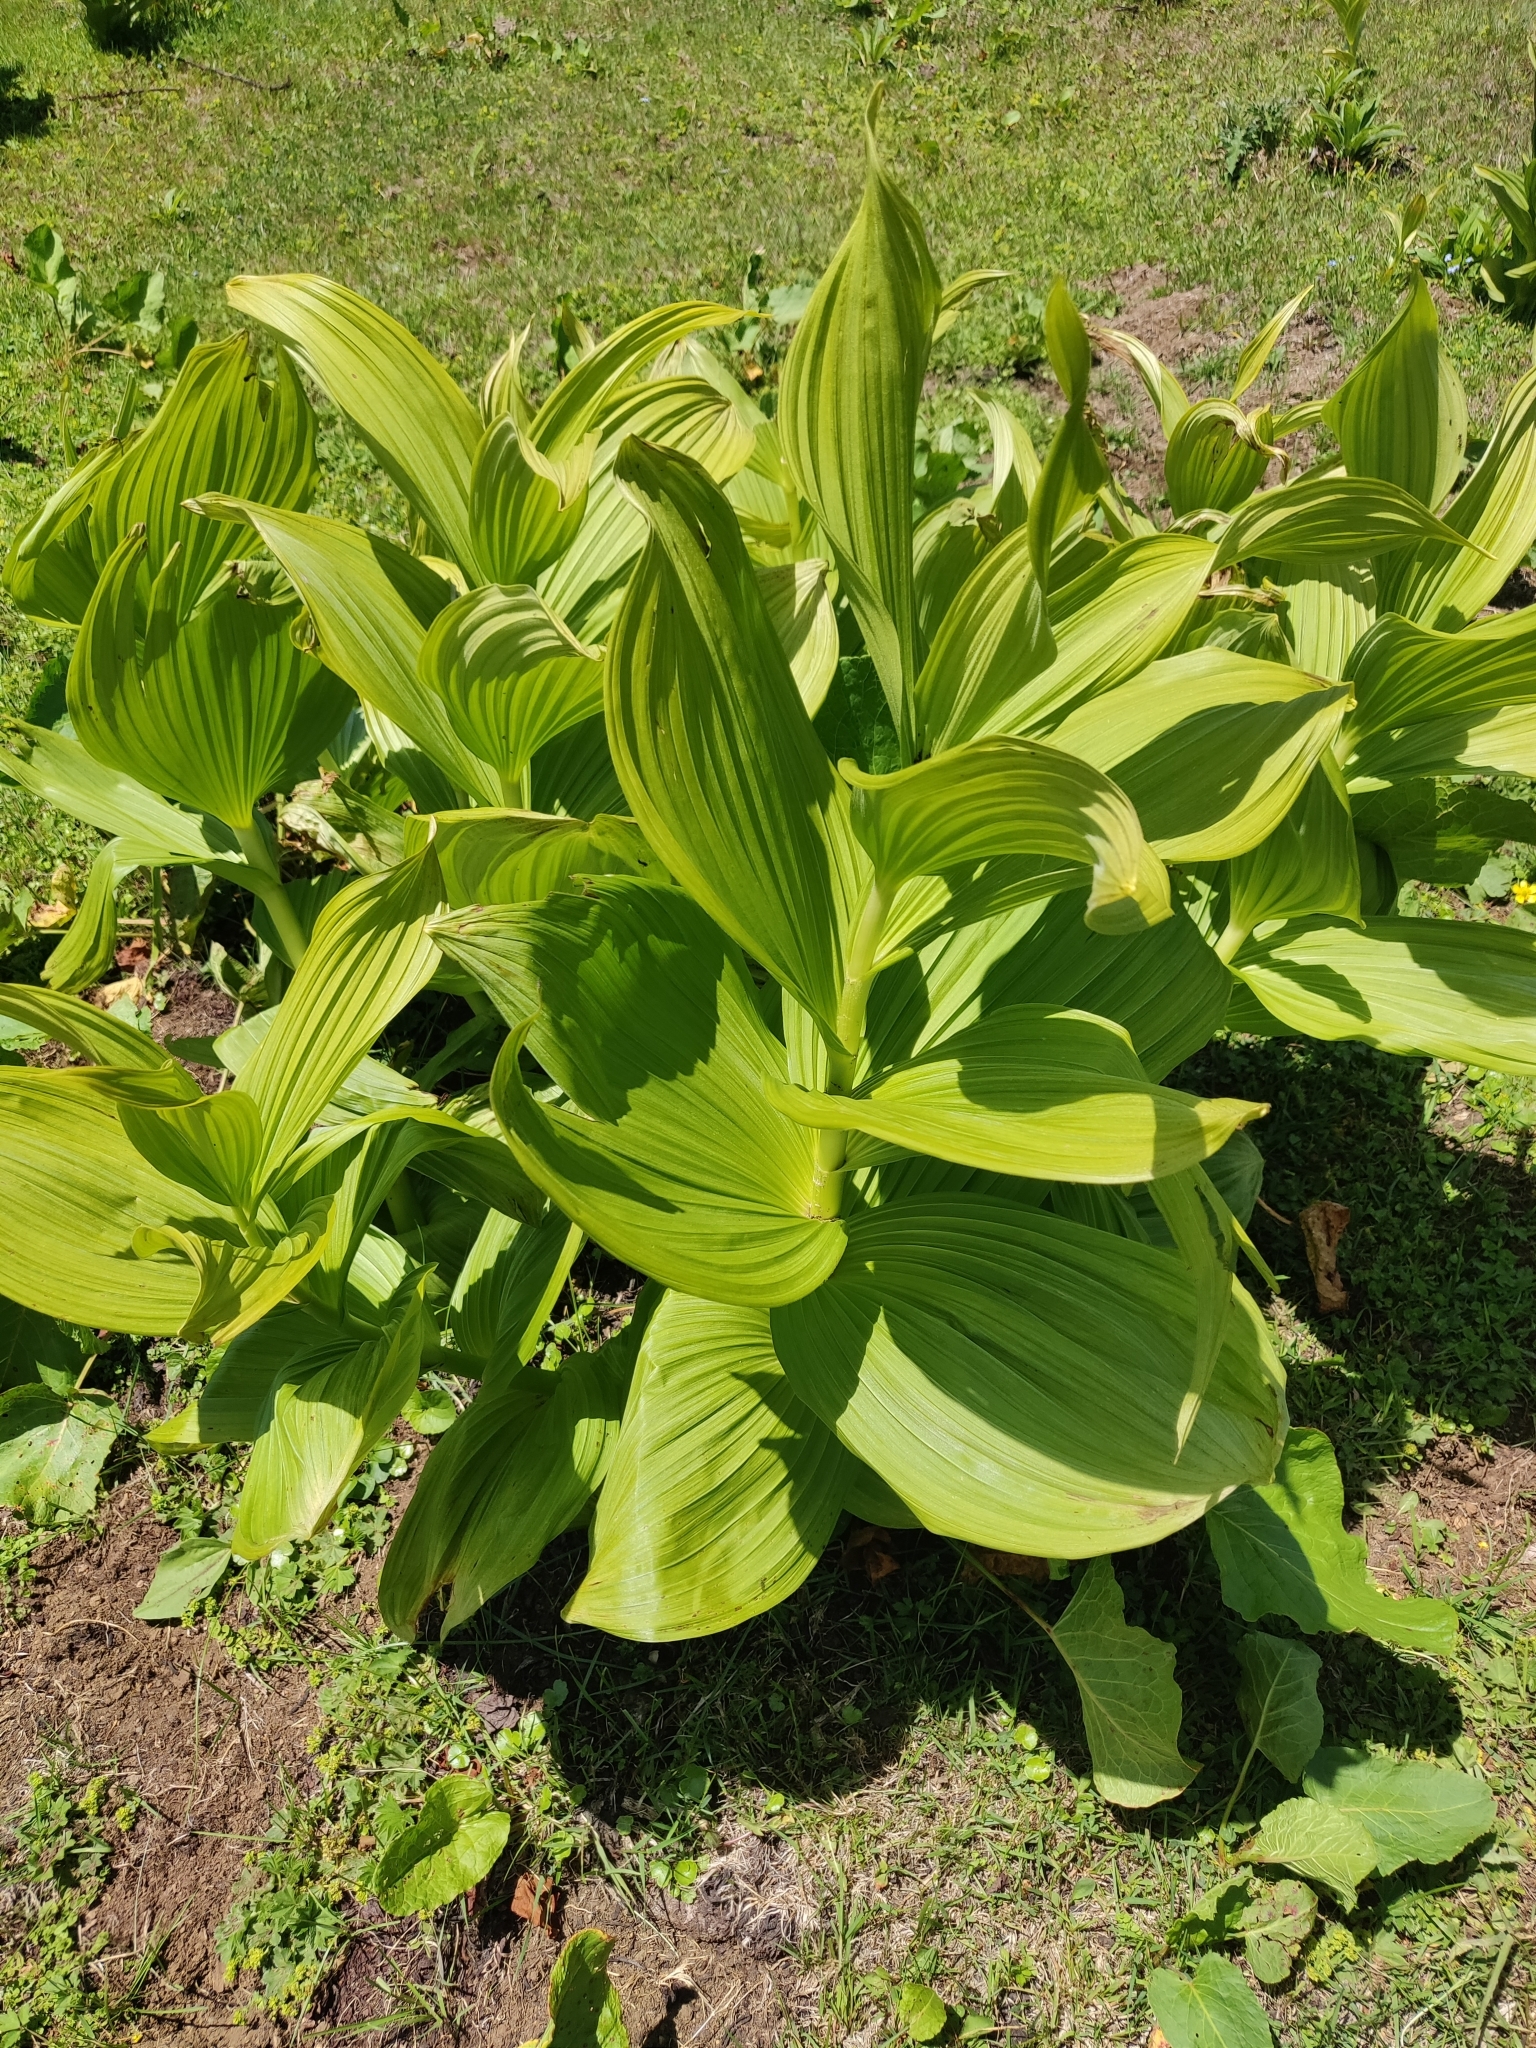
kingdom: Plantae
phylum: Tracheophyta
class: Liliopsida
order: Liliales
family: Melanthiaceae
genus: Veratrum
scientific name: Veratrum lobelianum
